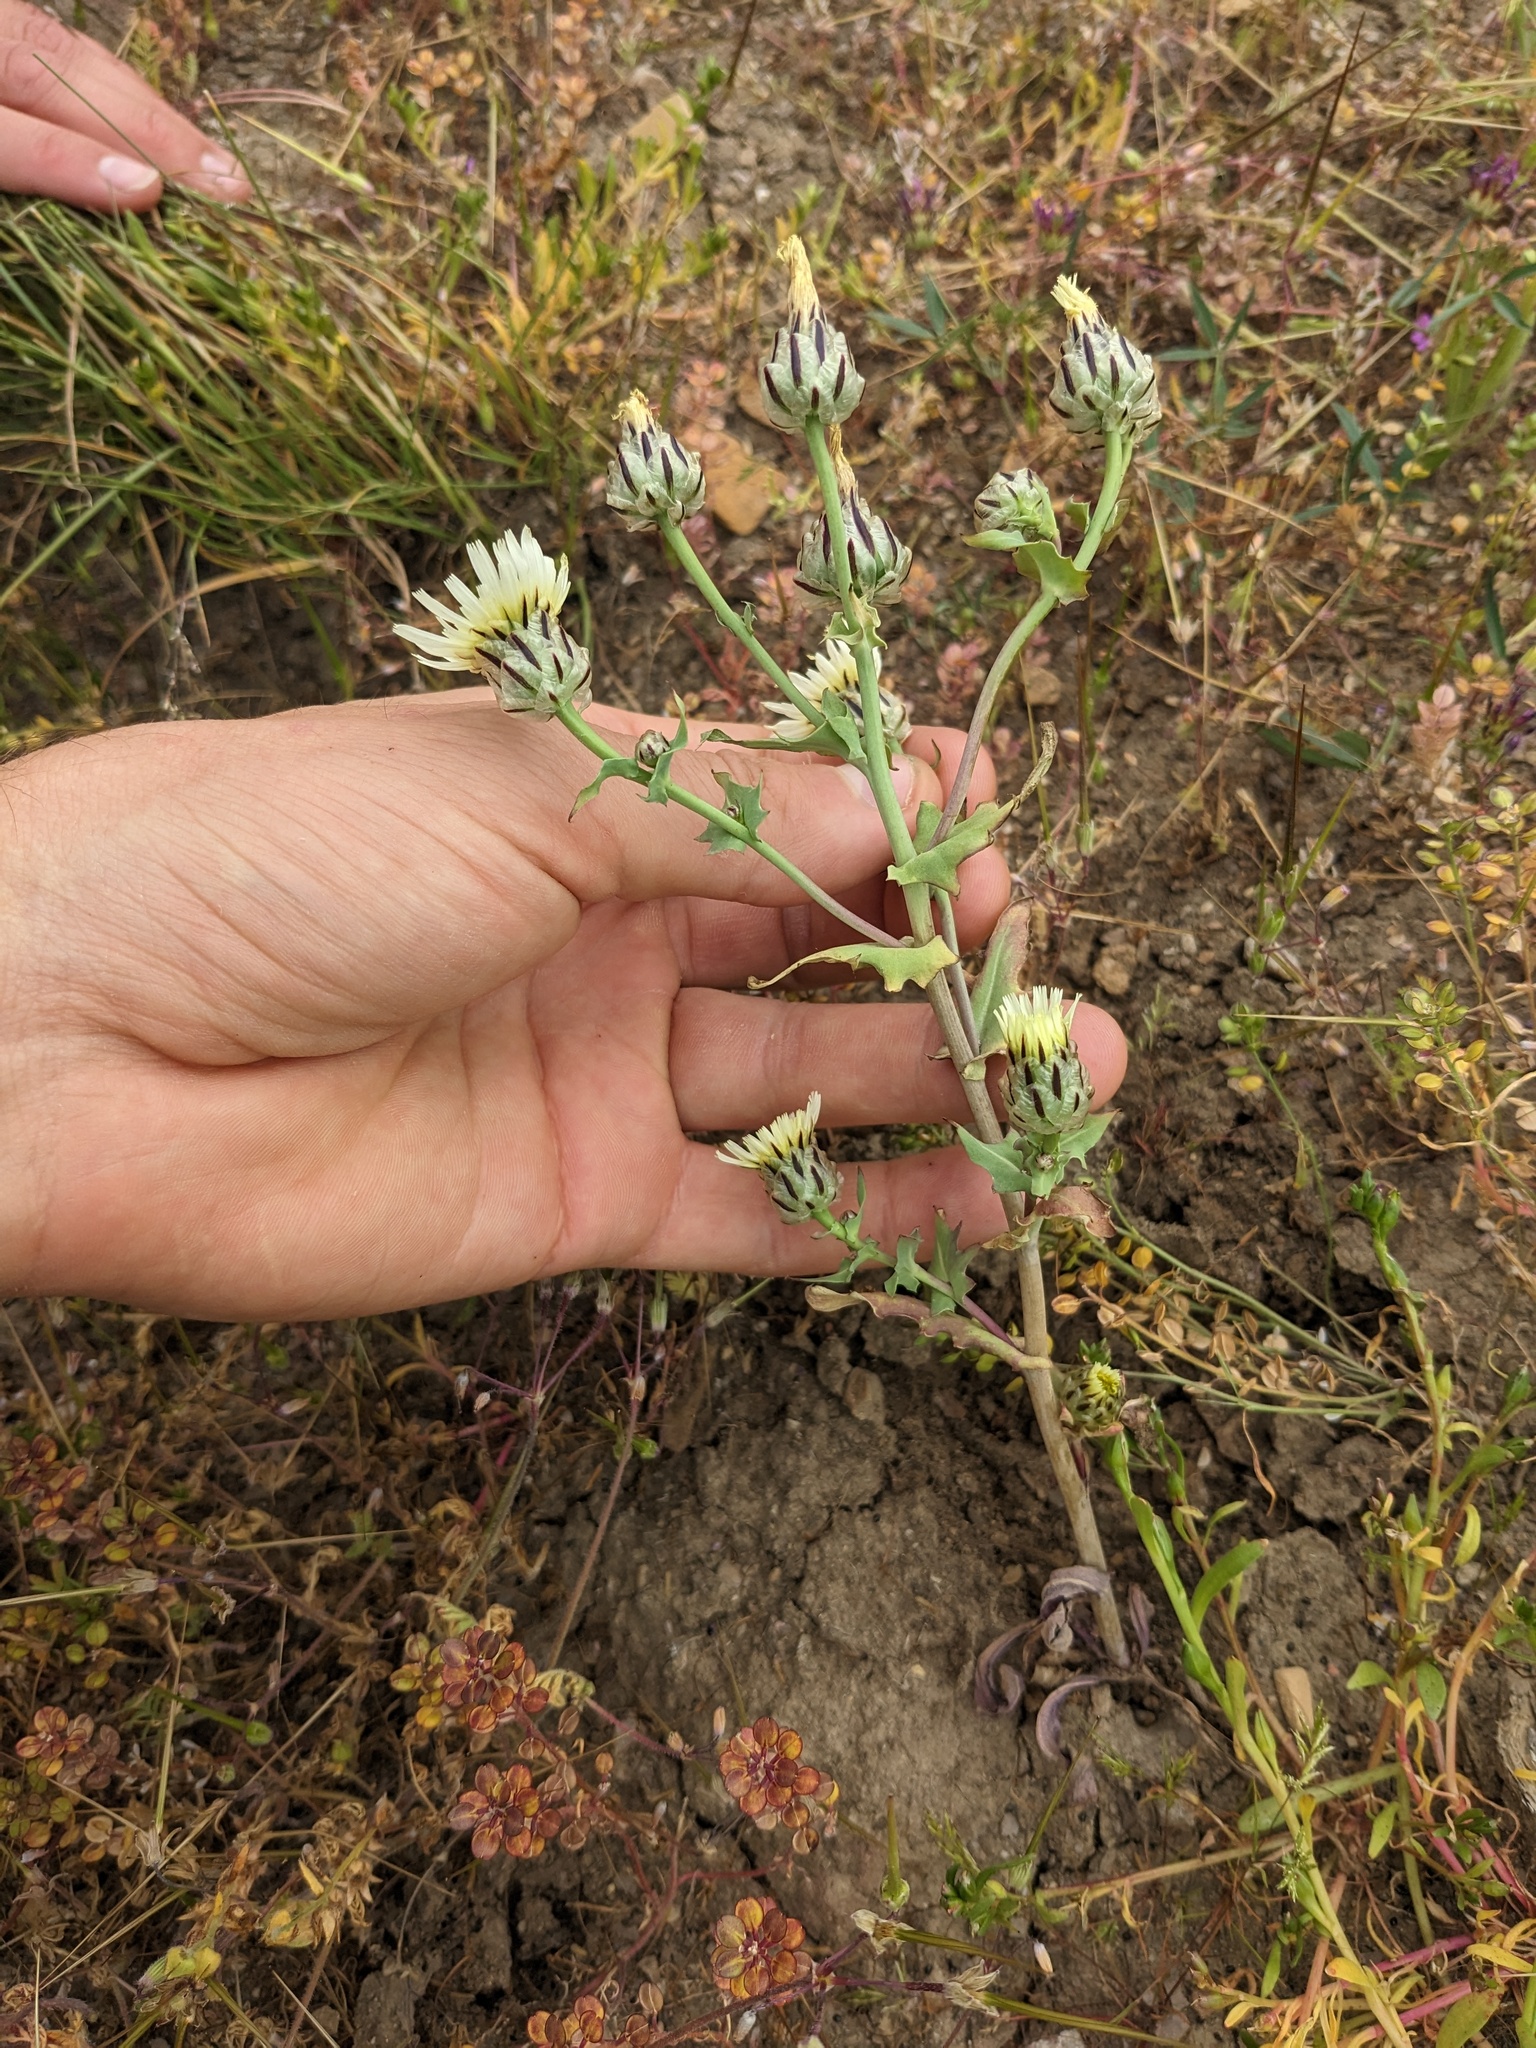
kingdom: Plantae
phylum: Tracheophyta
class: Magnoliopsida
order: Asterales
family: Asteraceae
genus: Malacothrix
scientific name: Malacothrix coulteri
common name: Snake's-head
